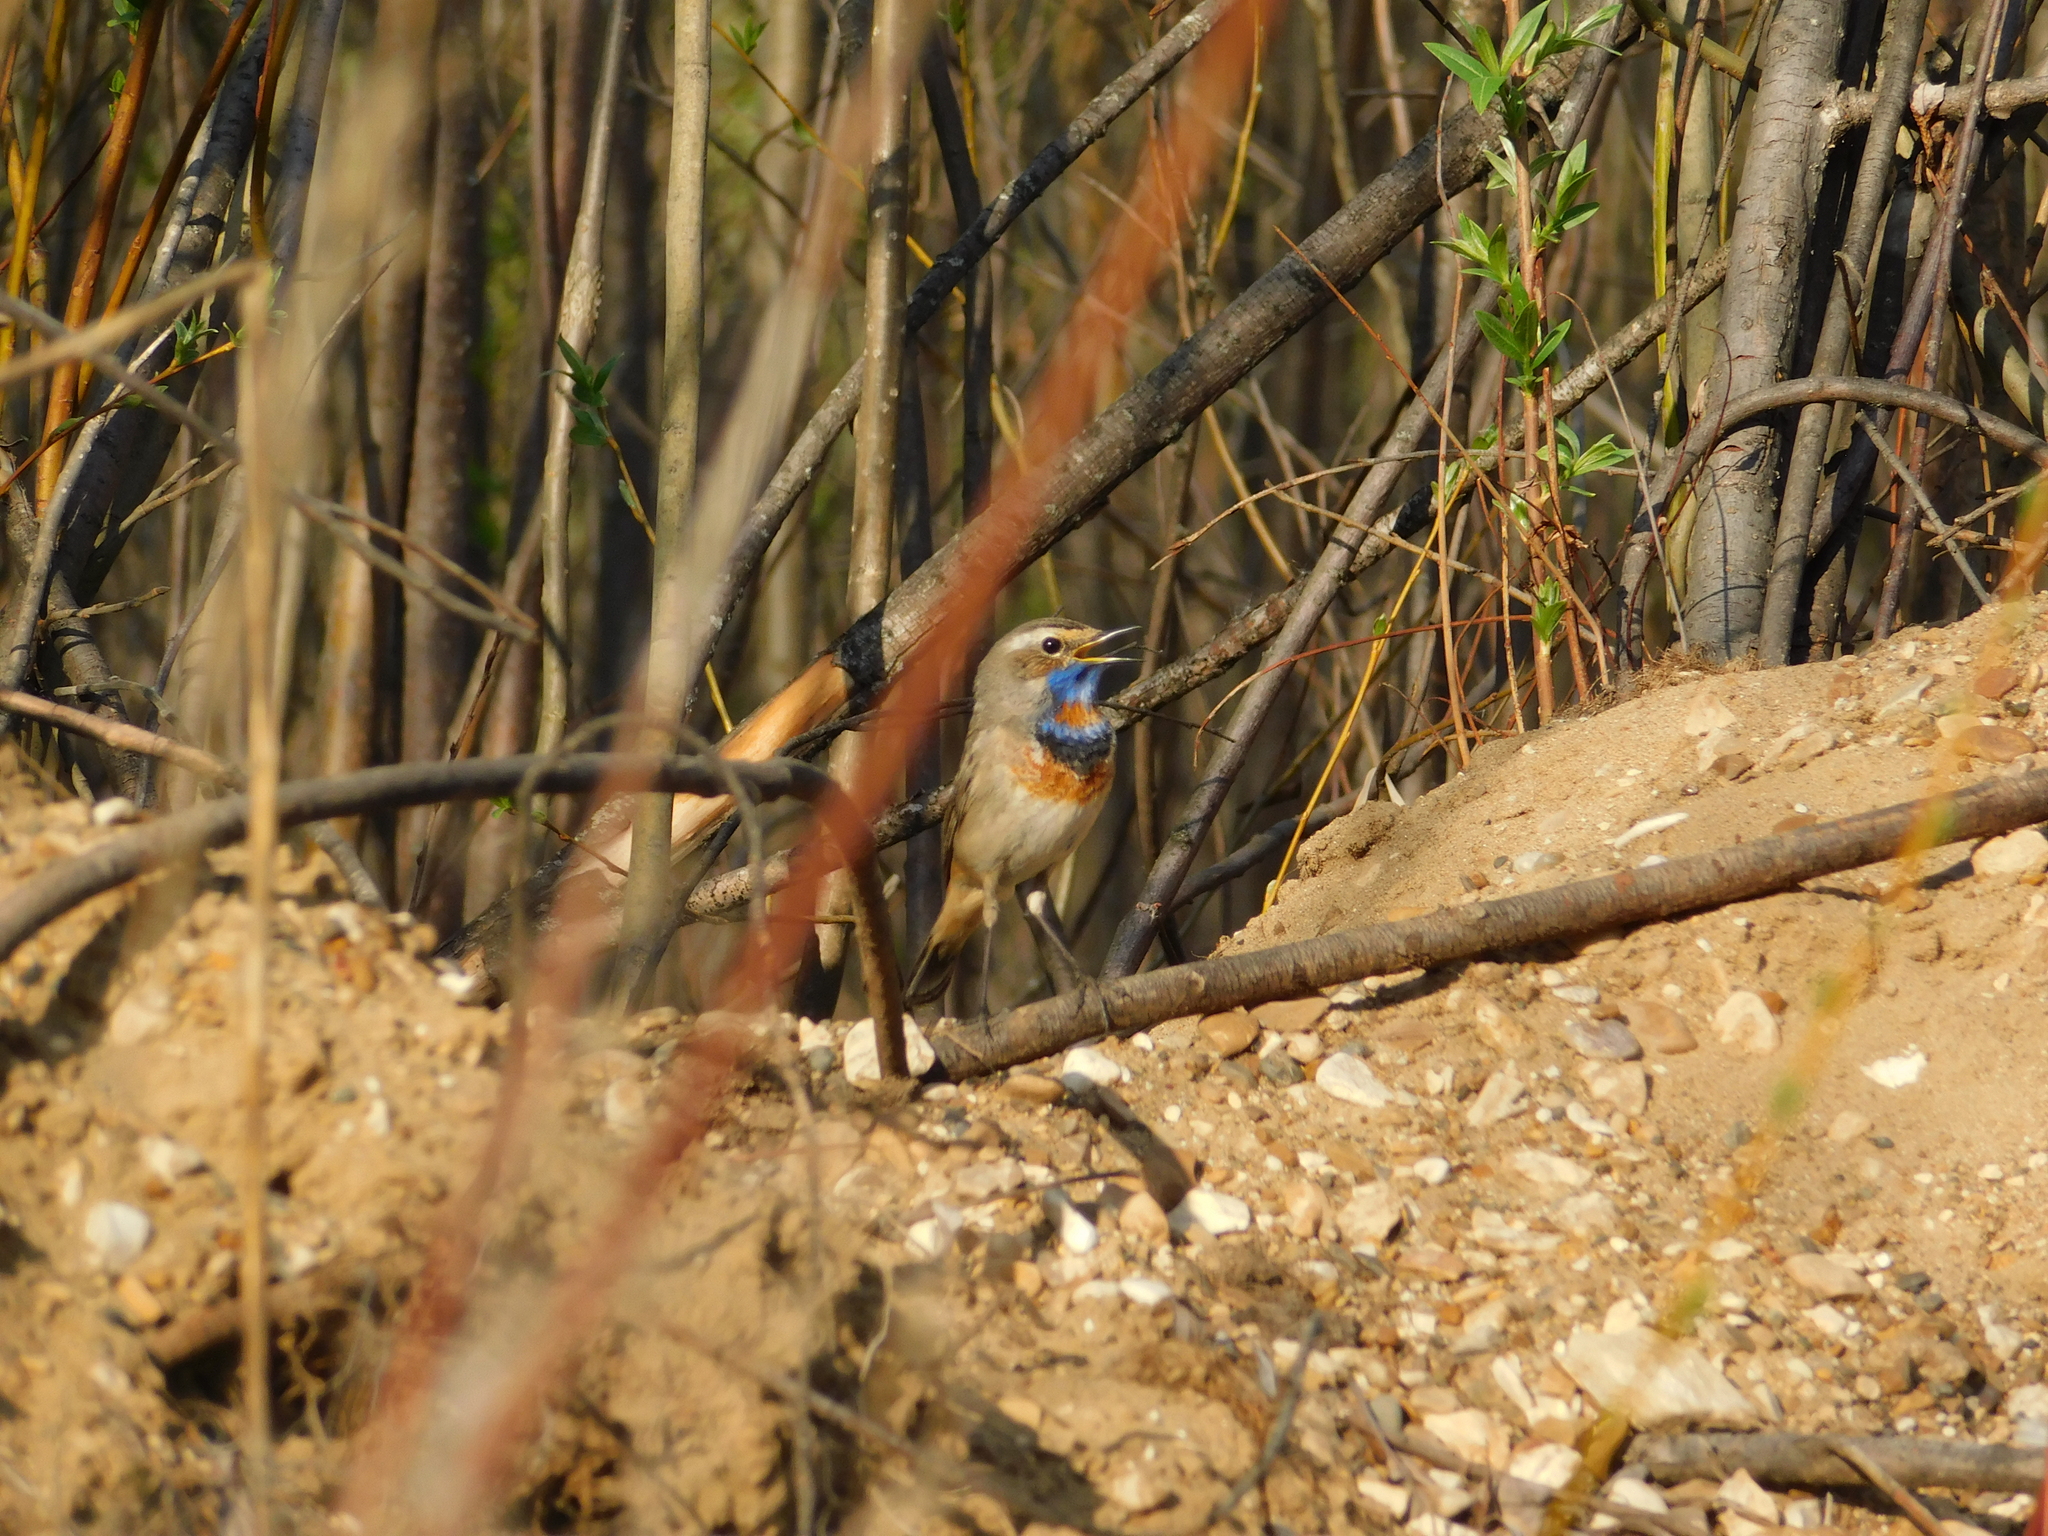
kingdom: Animalia
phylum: Chordata
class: Aves
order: Passeriformes
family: Muscicapidae
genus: Luscinia
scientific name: Luscinia svecica
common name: Bluethroat
